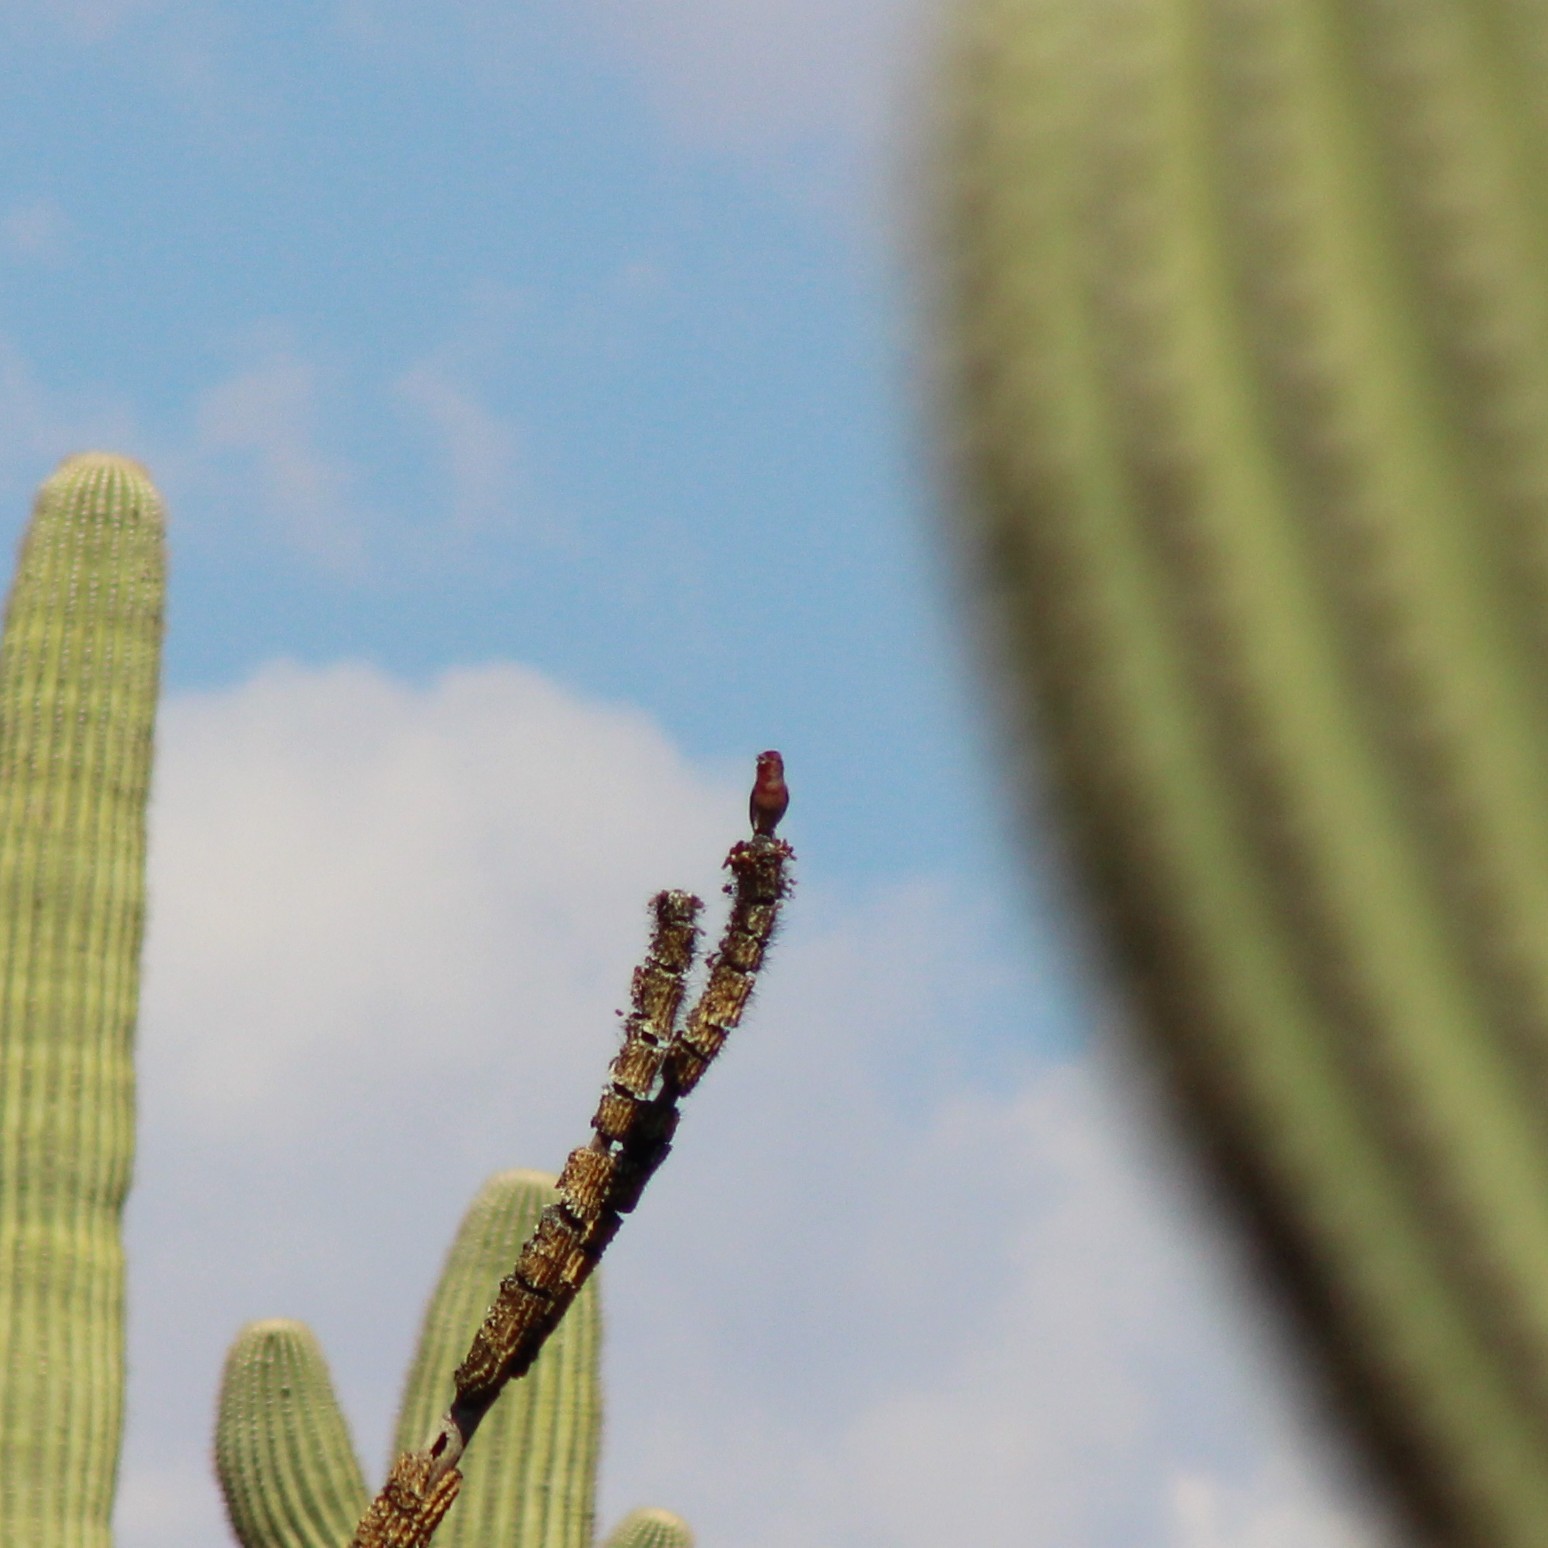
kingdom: Animalia
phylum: Chordata
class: Aves
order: Passeriformes
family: Fringillidae
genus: Haemorhous
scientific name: Haemorhous mexicanus
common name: House finch
